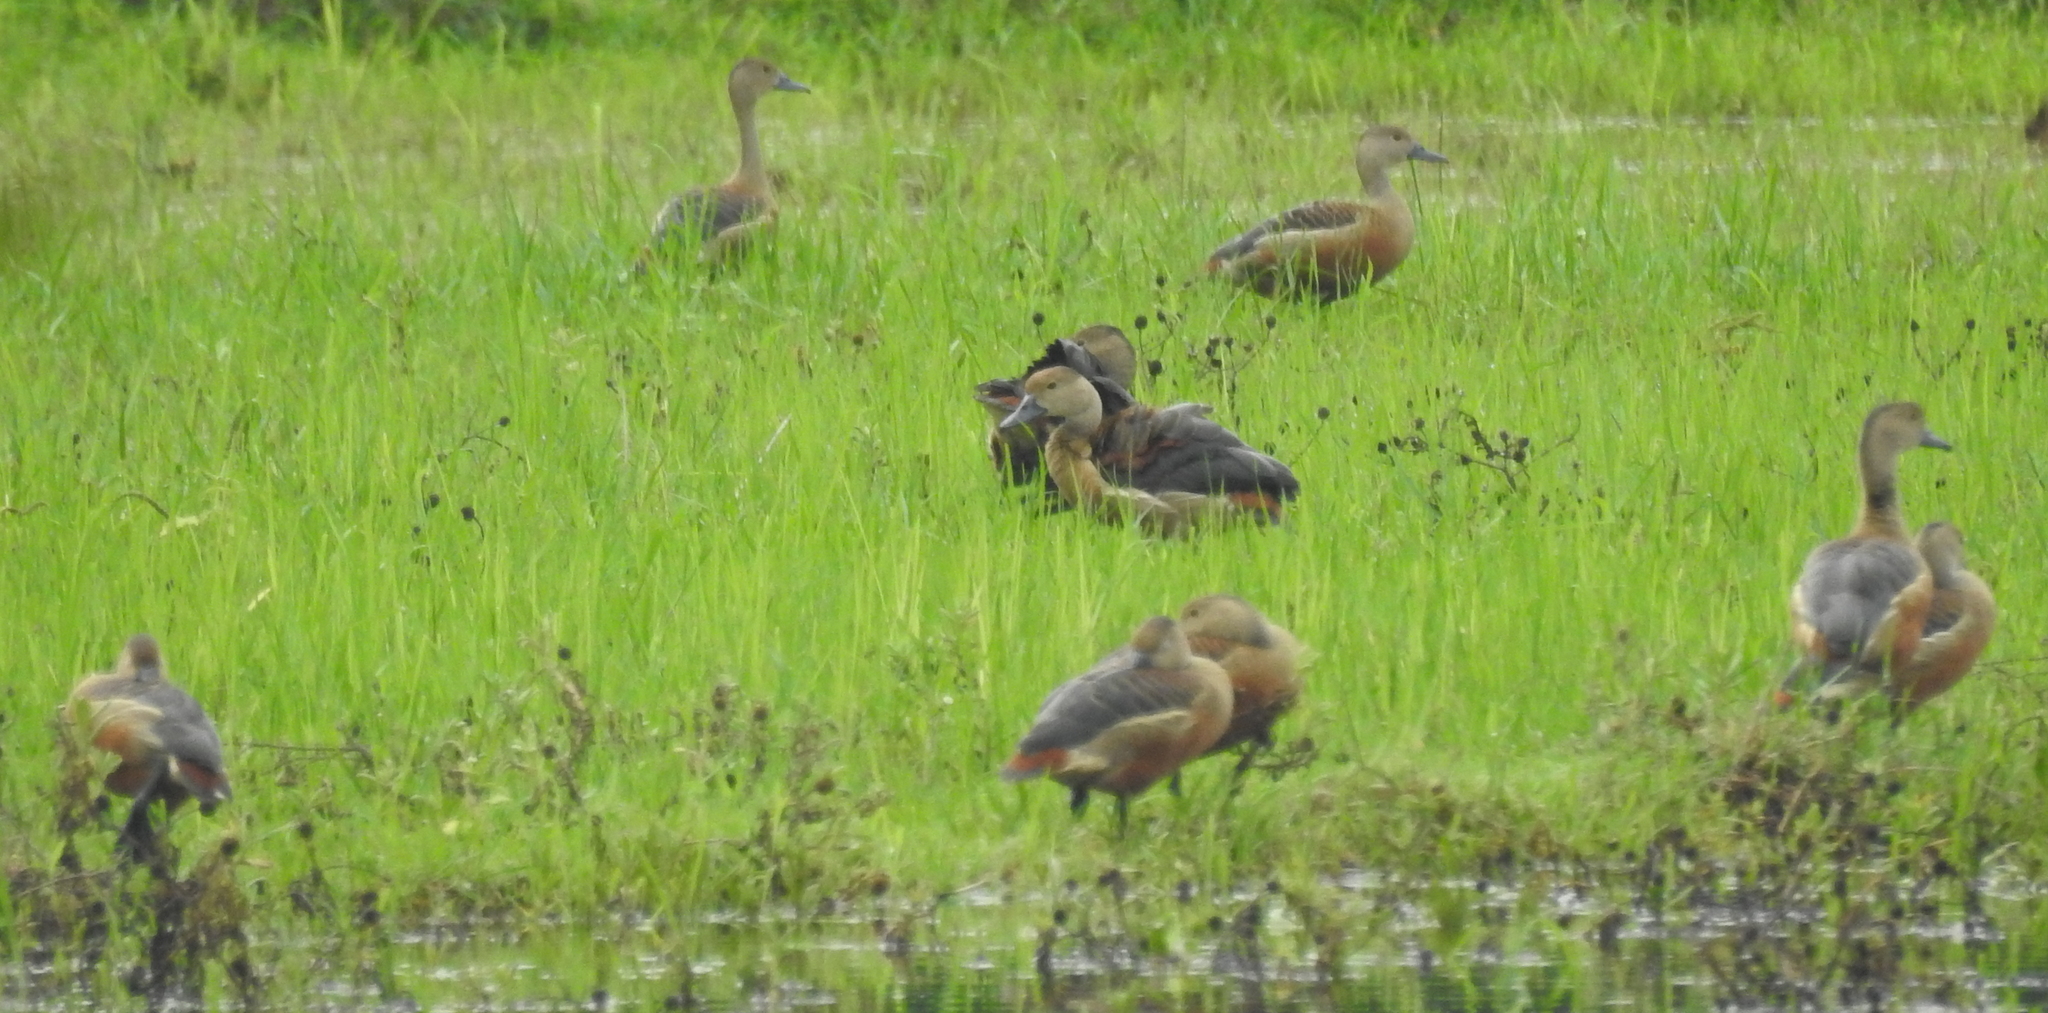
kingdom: Animalia
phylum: Chordata
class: Aves
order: Anseriformes
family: Anatidae
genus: Dendrocygna
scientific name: Dendrocygna javanica
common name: Lesser whistling-duck
